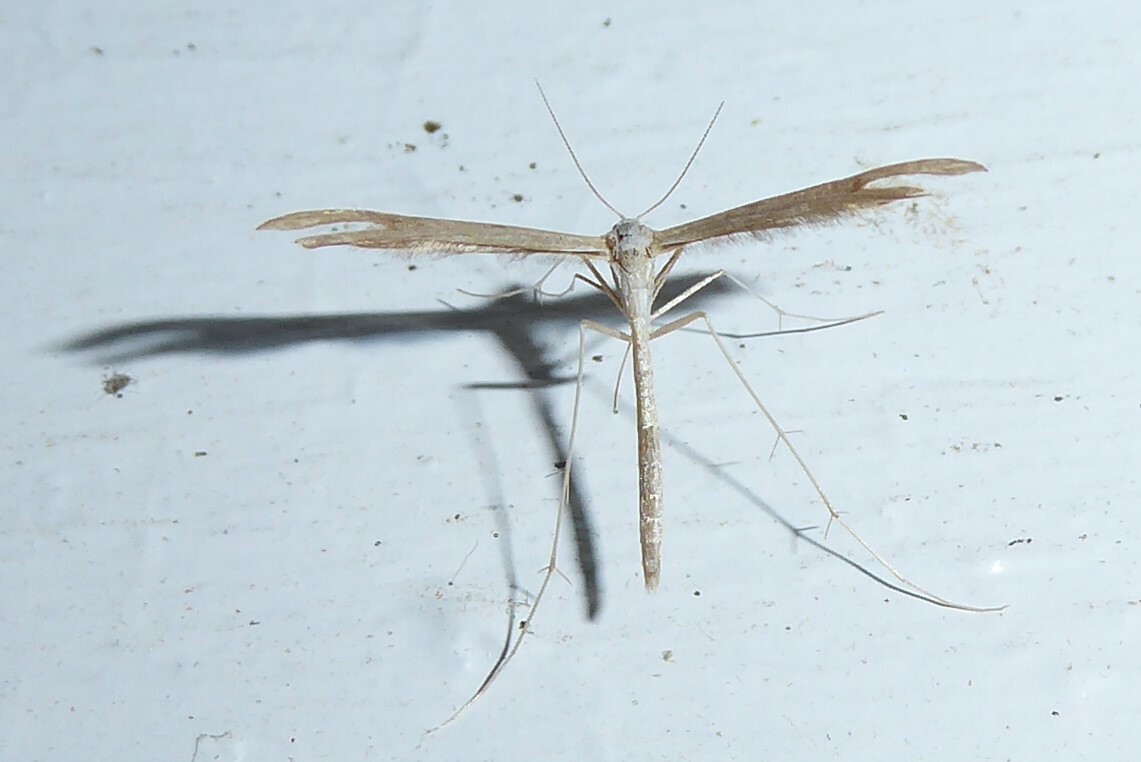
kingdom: Animalia
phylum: Arthropoda
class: Insecta
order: Lepidoptera
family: Pterophoridae
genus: Stenoptilia
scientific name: Stenoptilia zophodactylus
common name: Dowdy plume
